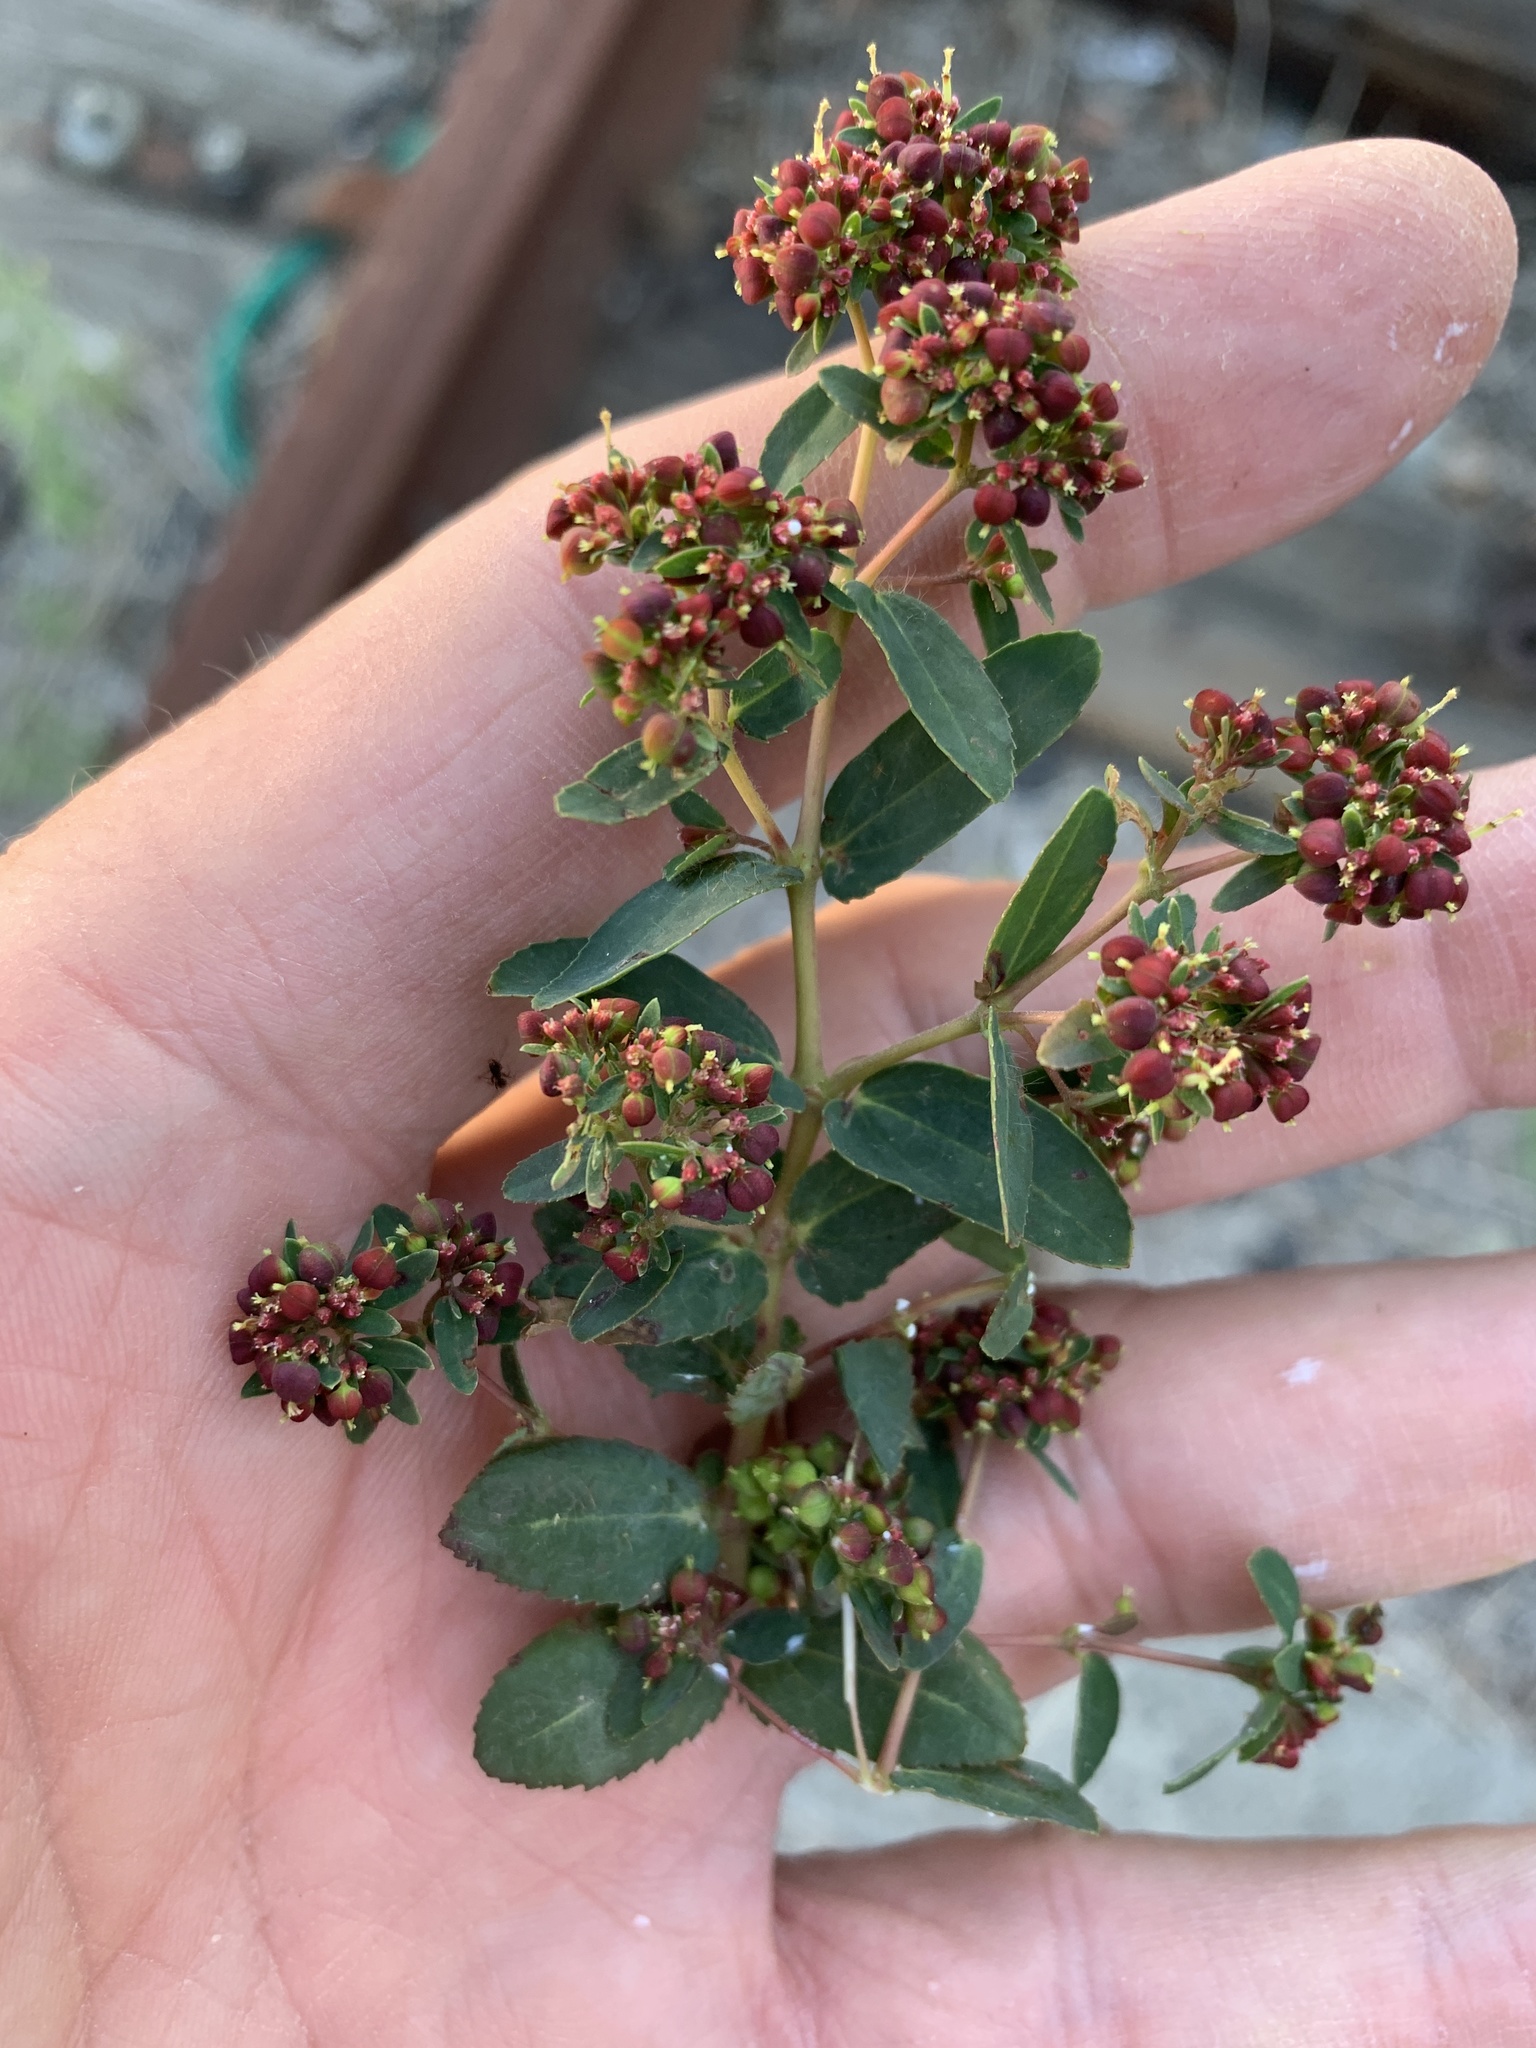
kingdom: Plantae
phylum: Tracheophyta
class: Magnoliopsida
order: Malpighiales
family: Euphorbiaceae
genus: Euphorbia
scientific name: Euphorbia nutans
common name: Eyebane
